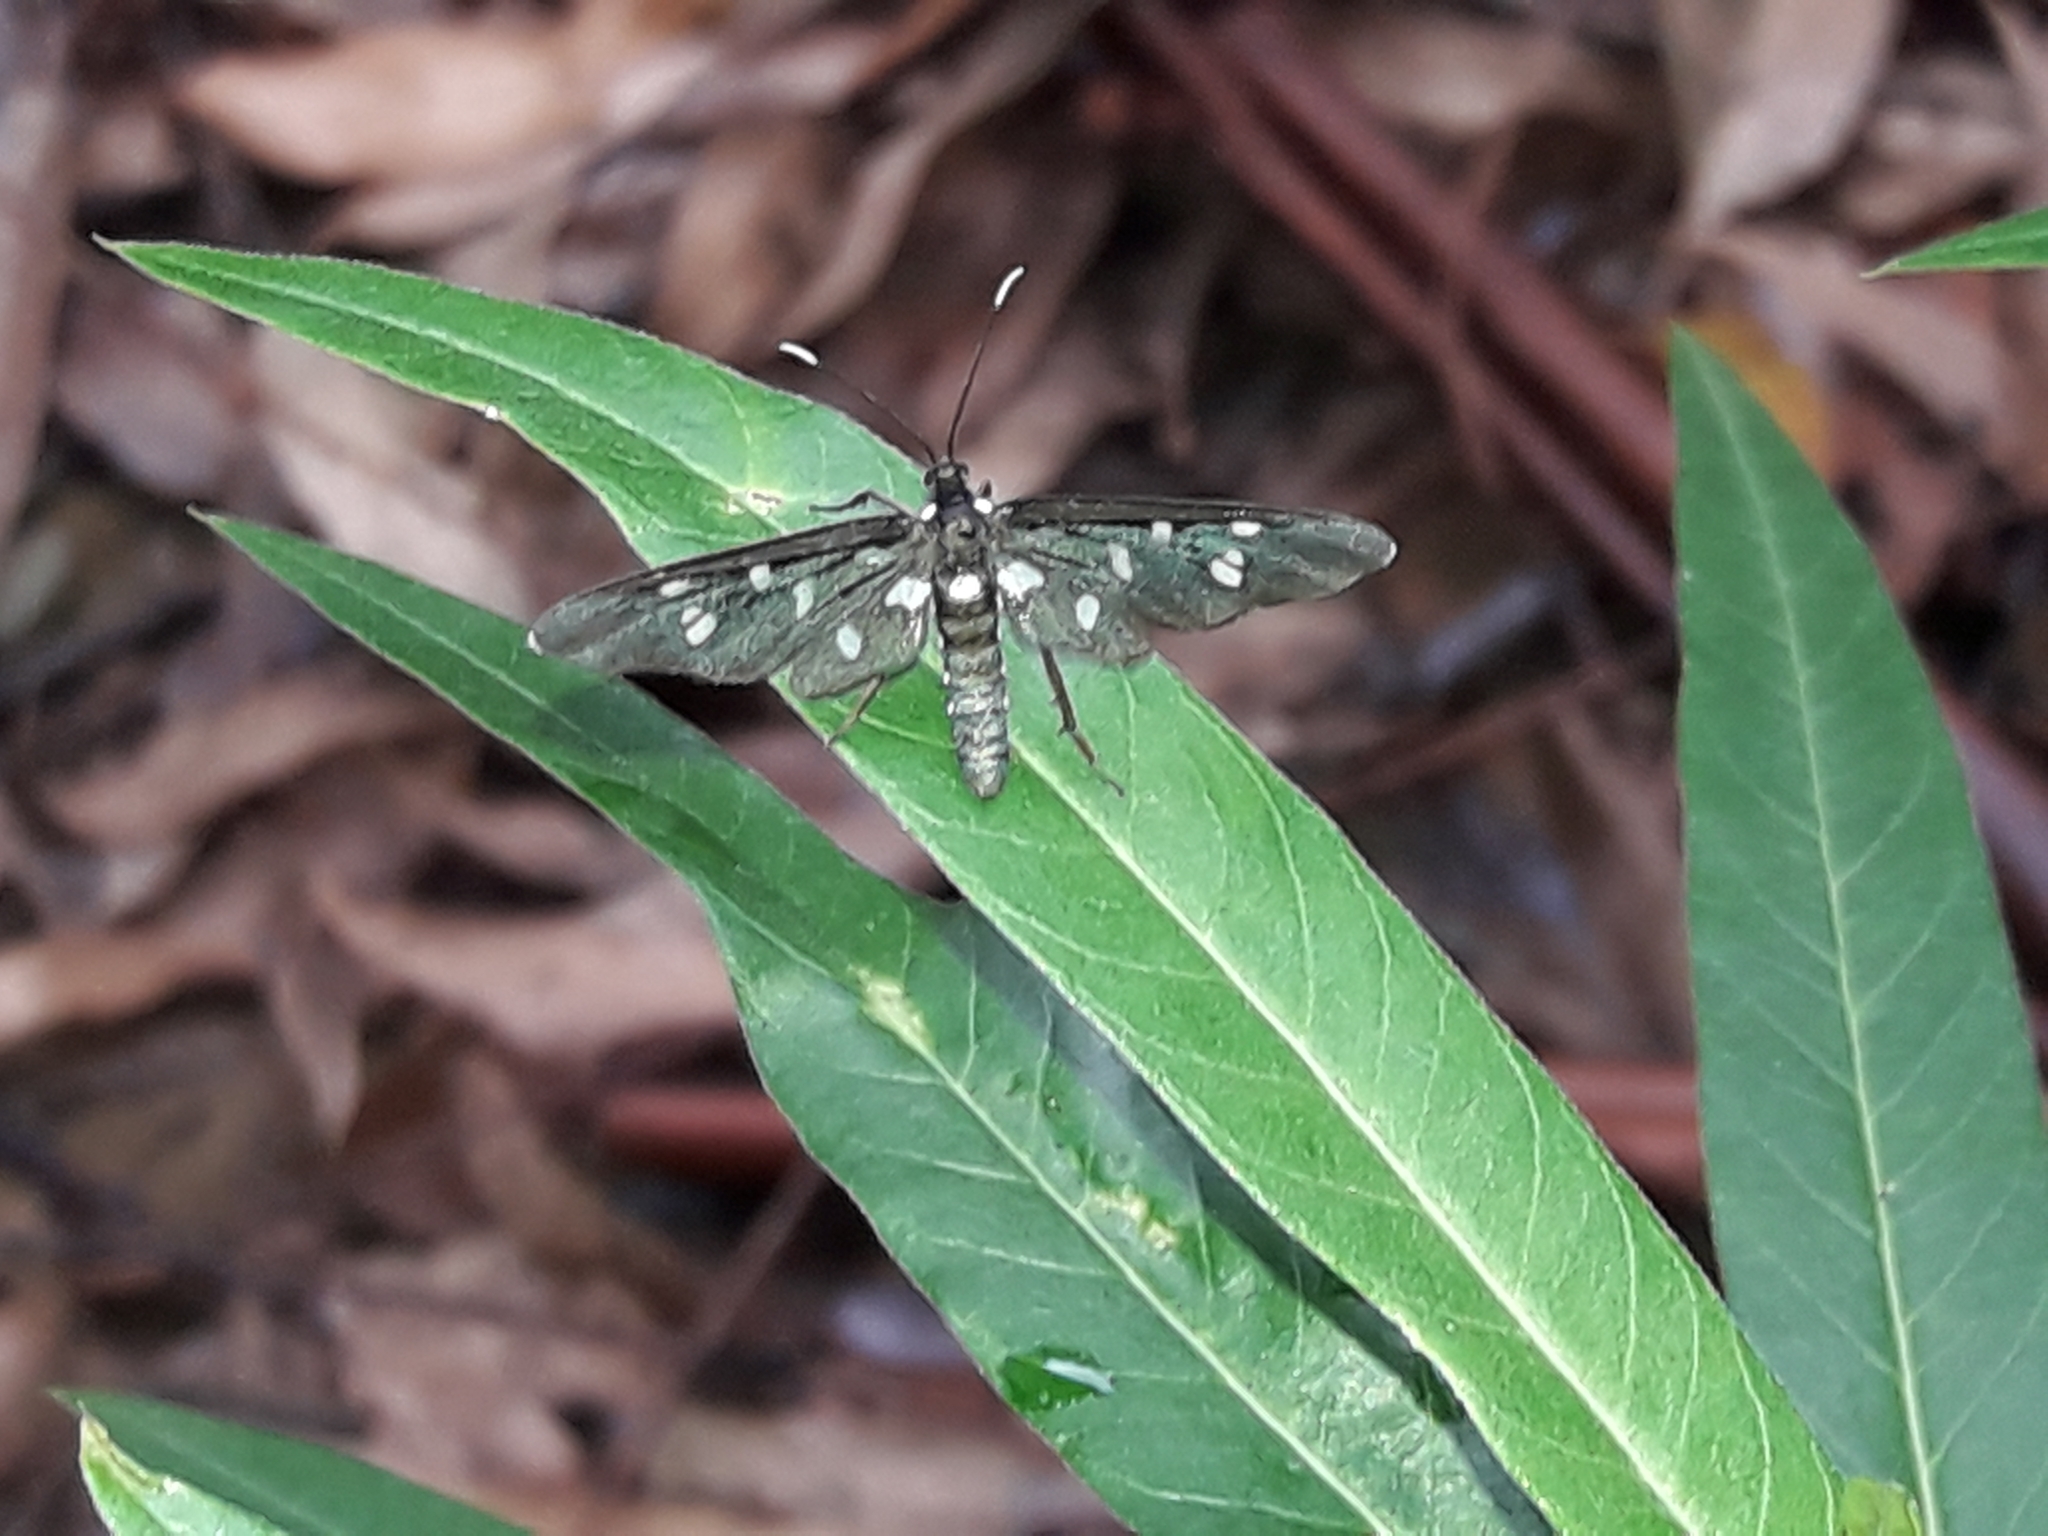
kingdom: Animalia
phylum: Arthropoda
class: Insecta
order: Lepidoptera
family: Erebidae
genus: Ceryx
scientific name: Ceryx longipes
